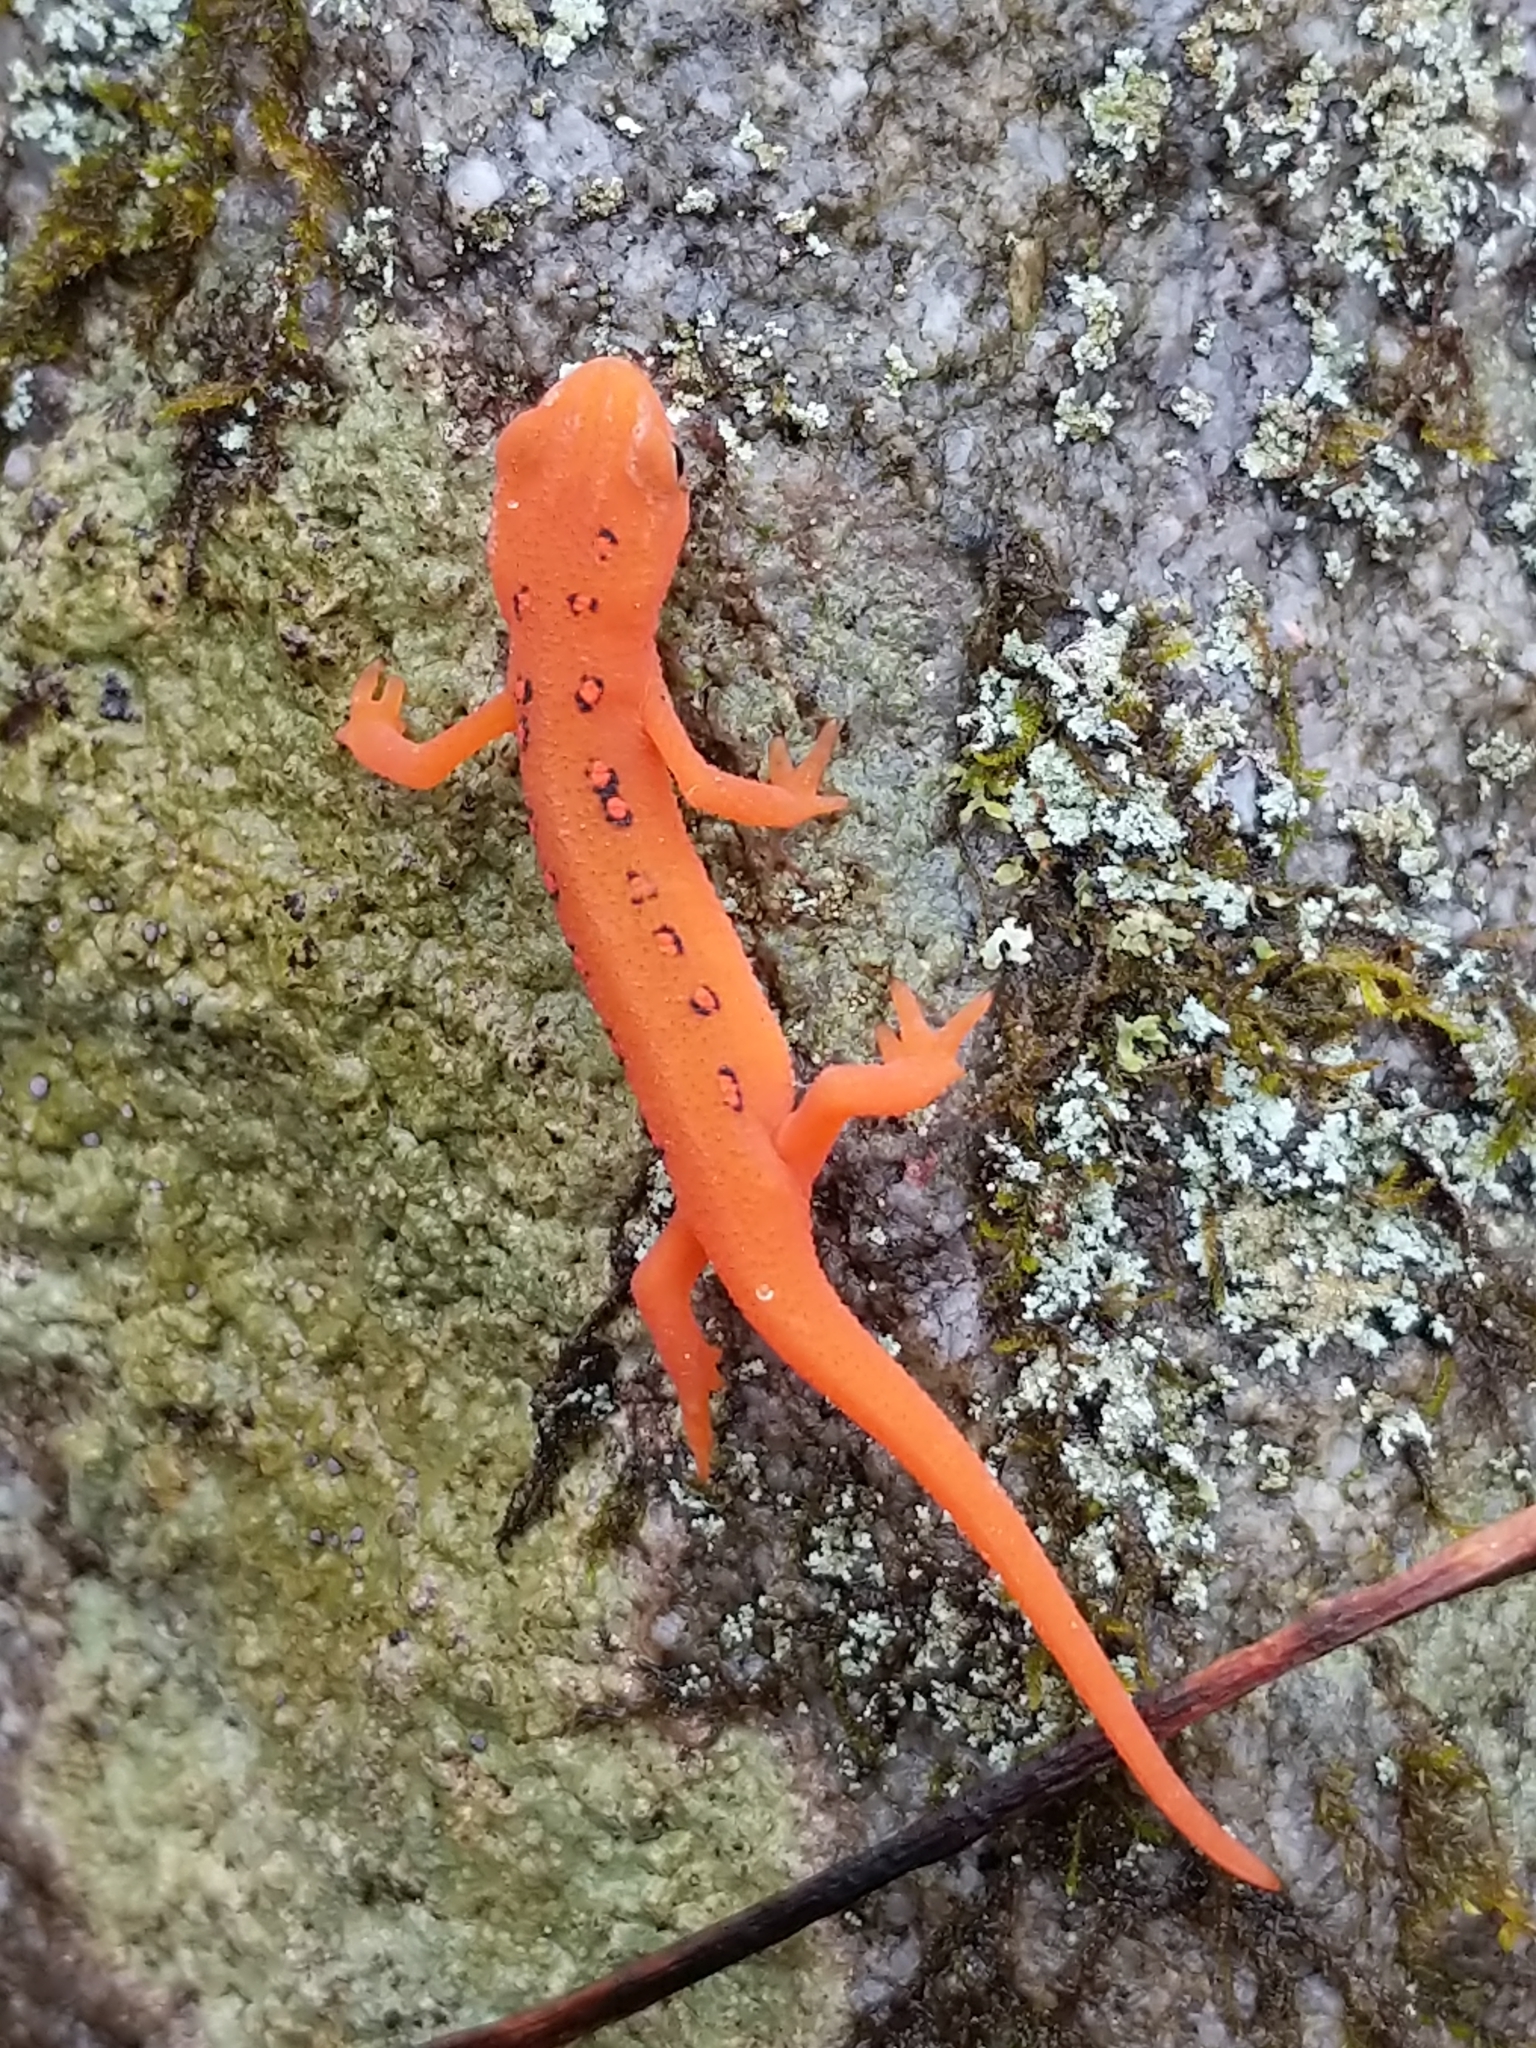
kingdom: Animalia
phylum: Chordata
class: Amphibia
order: Caudata
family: Salamandridae
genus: Notophthalmus
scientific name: Notophthalmus viridescens
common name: Eastern newt
